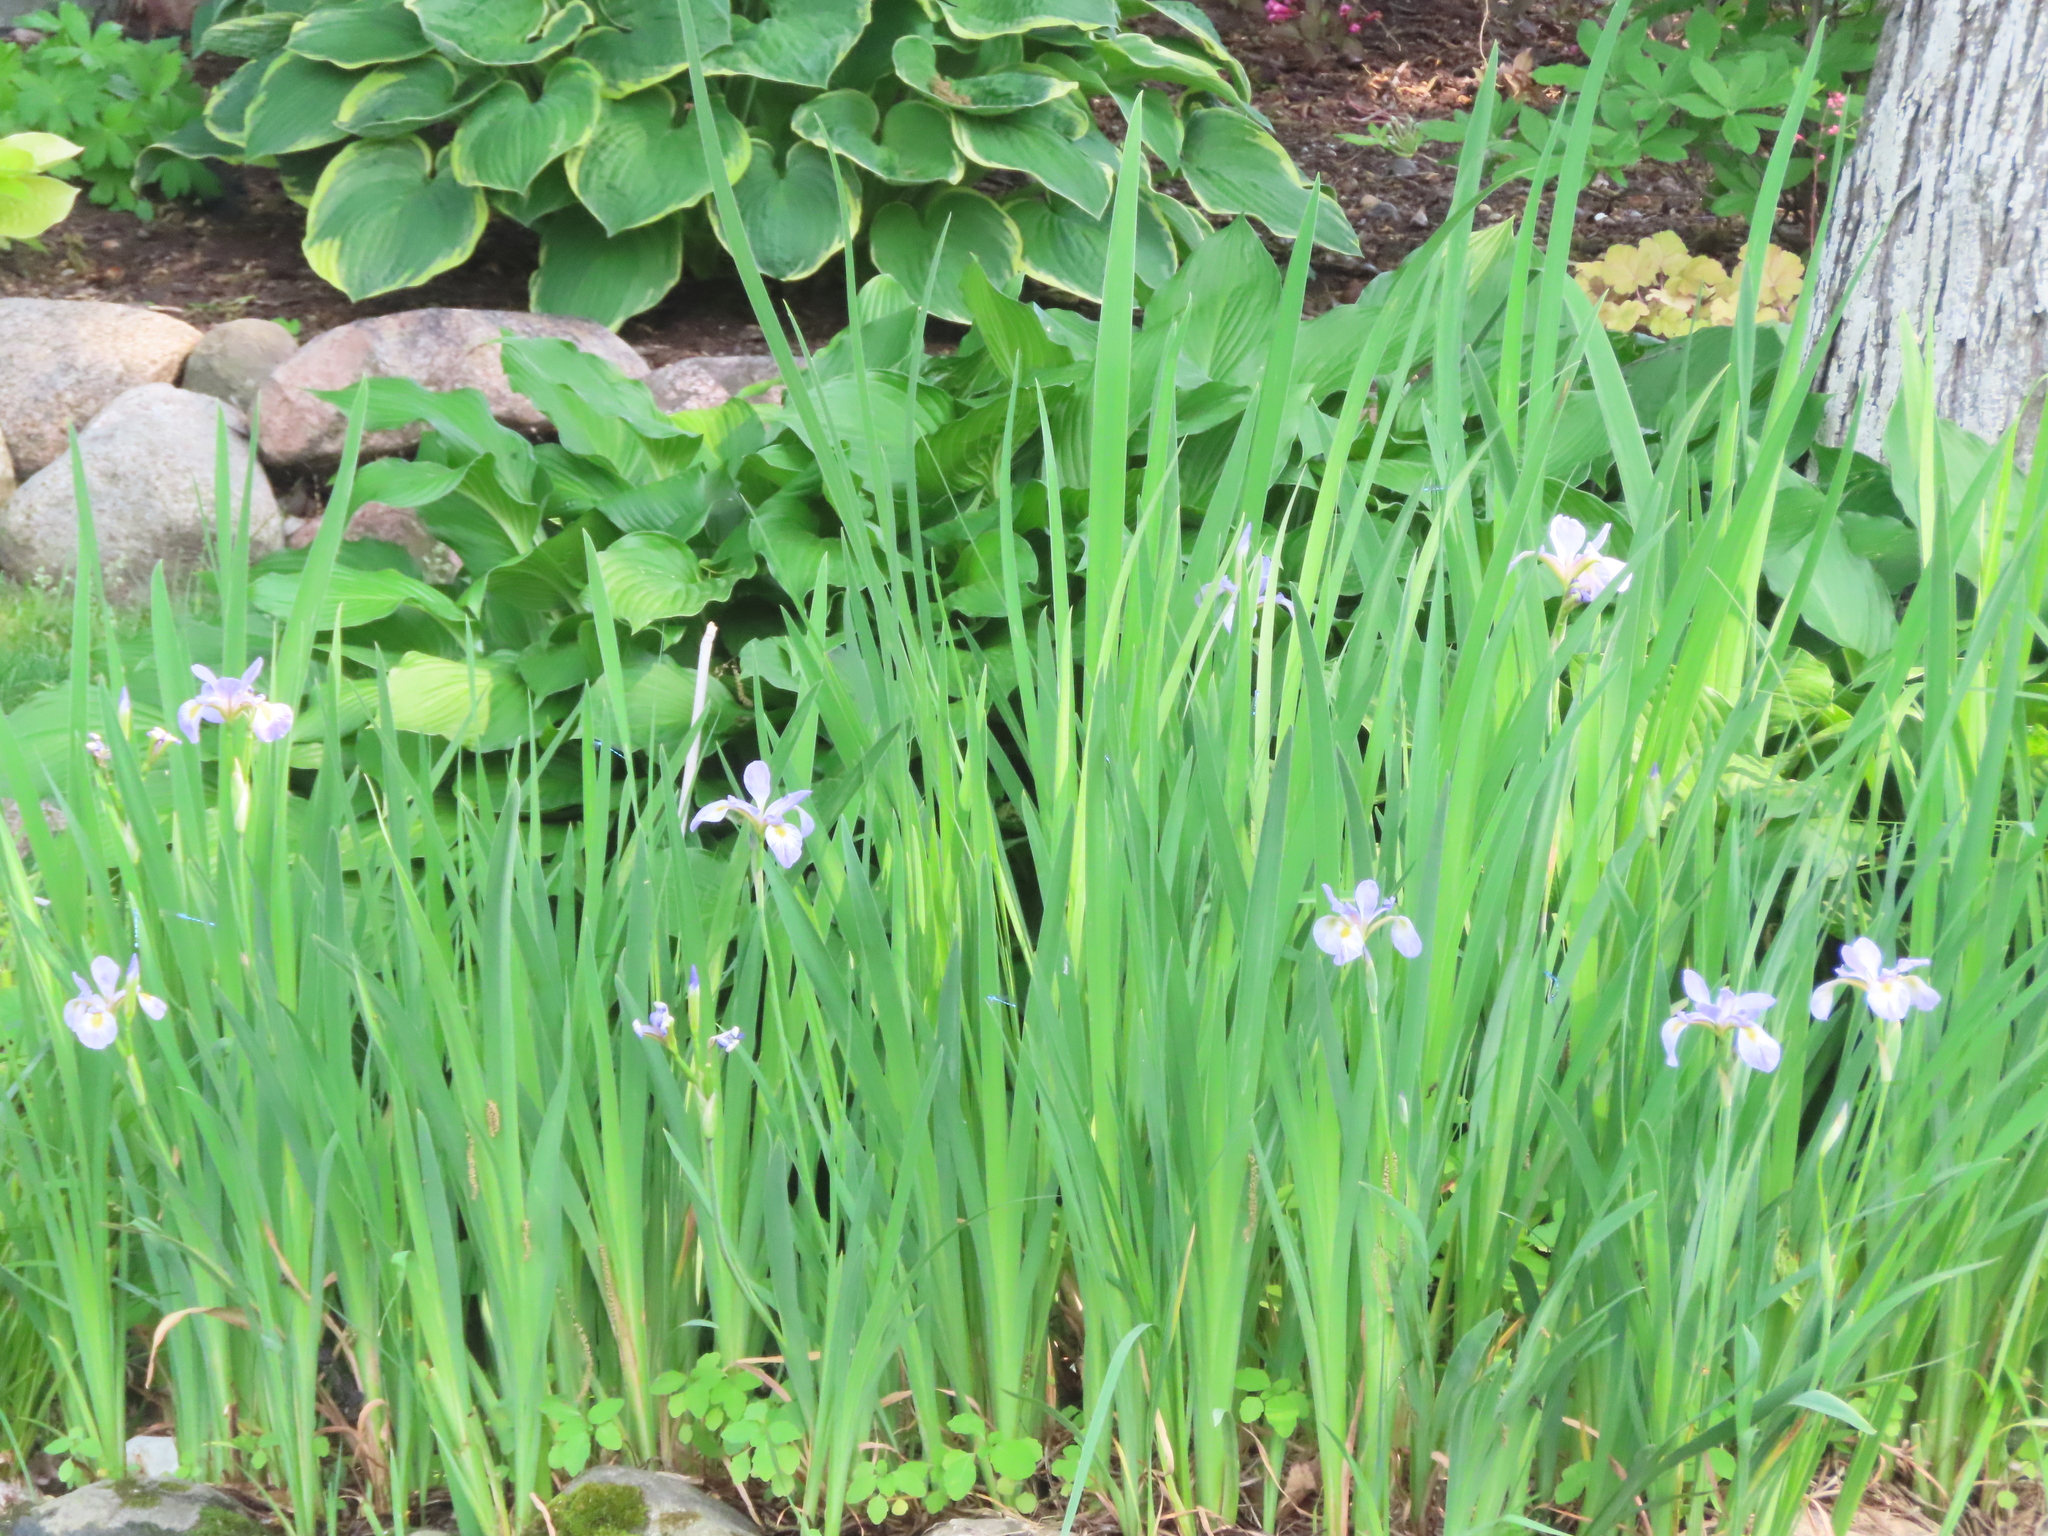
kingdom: Plantae
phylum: Tracheophyta
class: Liliopsida
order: Asparagales
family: Iridaceae
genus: Iris
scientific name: Iris virginica
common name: Southern blue flag
